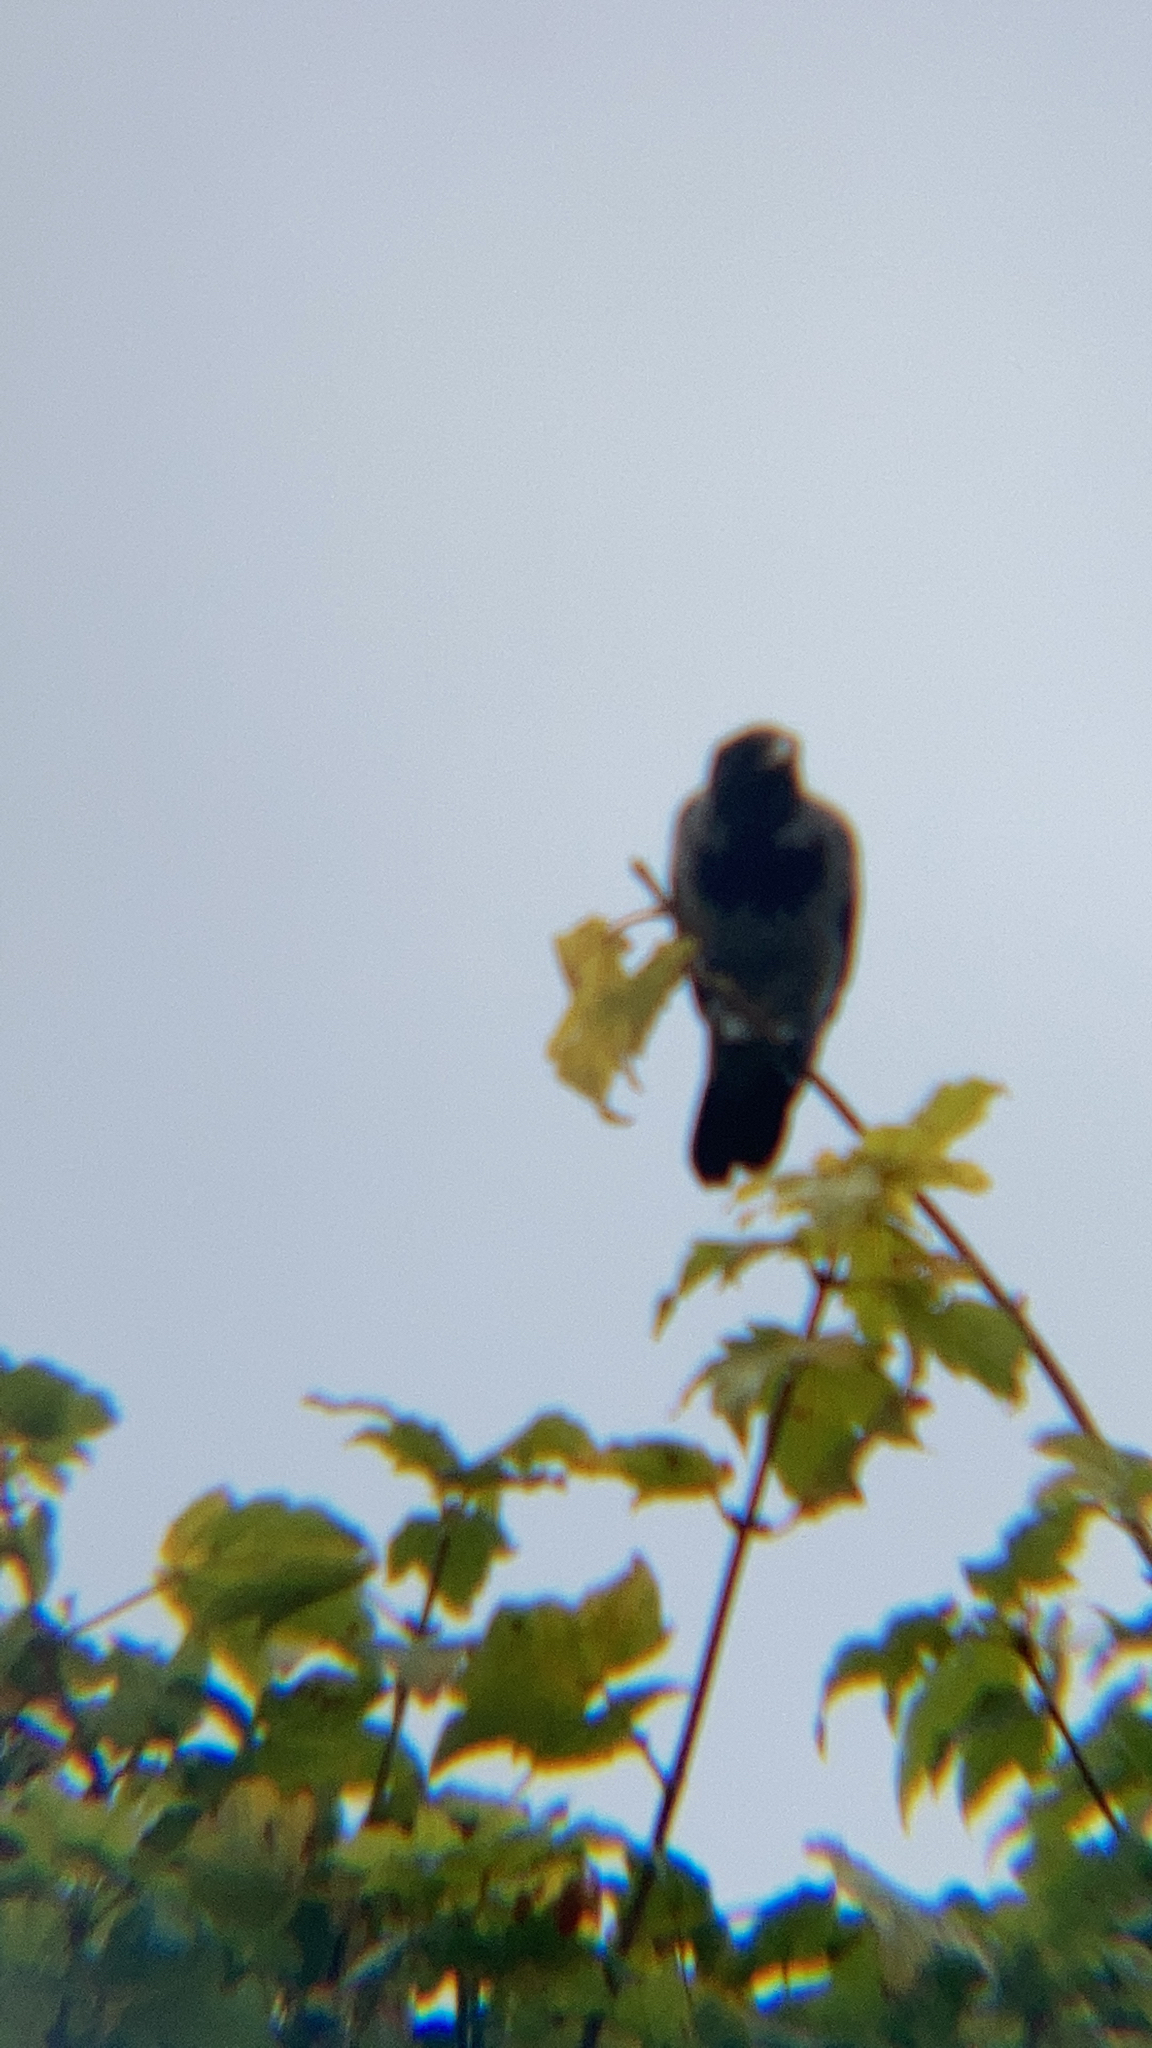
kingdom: Animalia
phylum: Chordata
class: Aves
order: Passeriformes
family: Corvidae
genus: Corvus
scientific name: Corvus cornix
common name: Hooded crow
